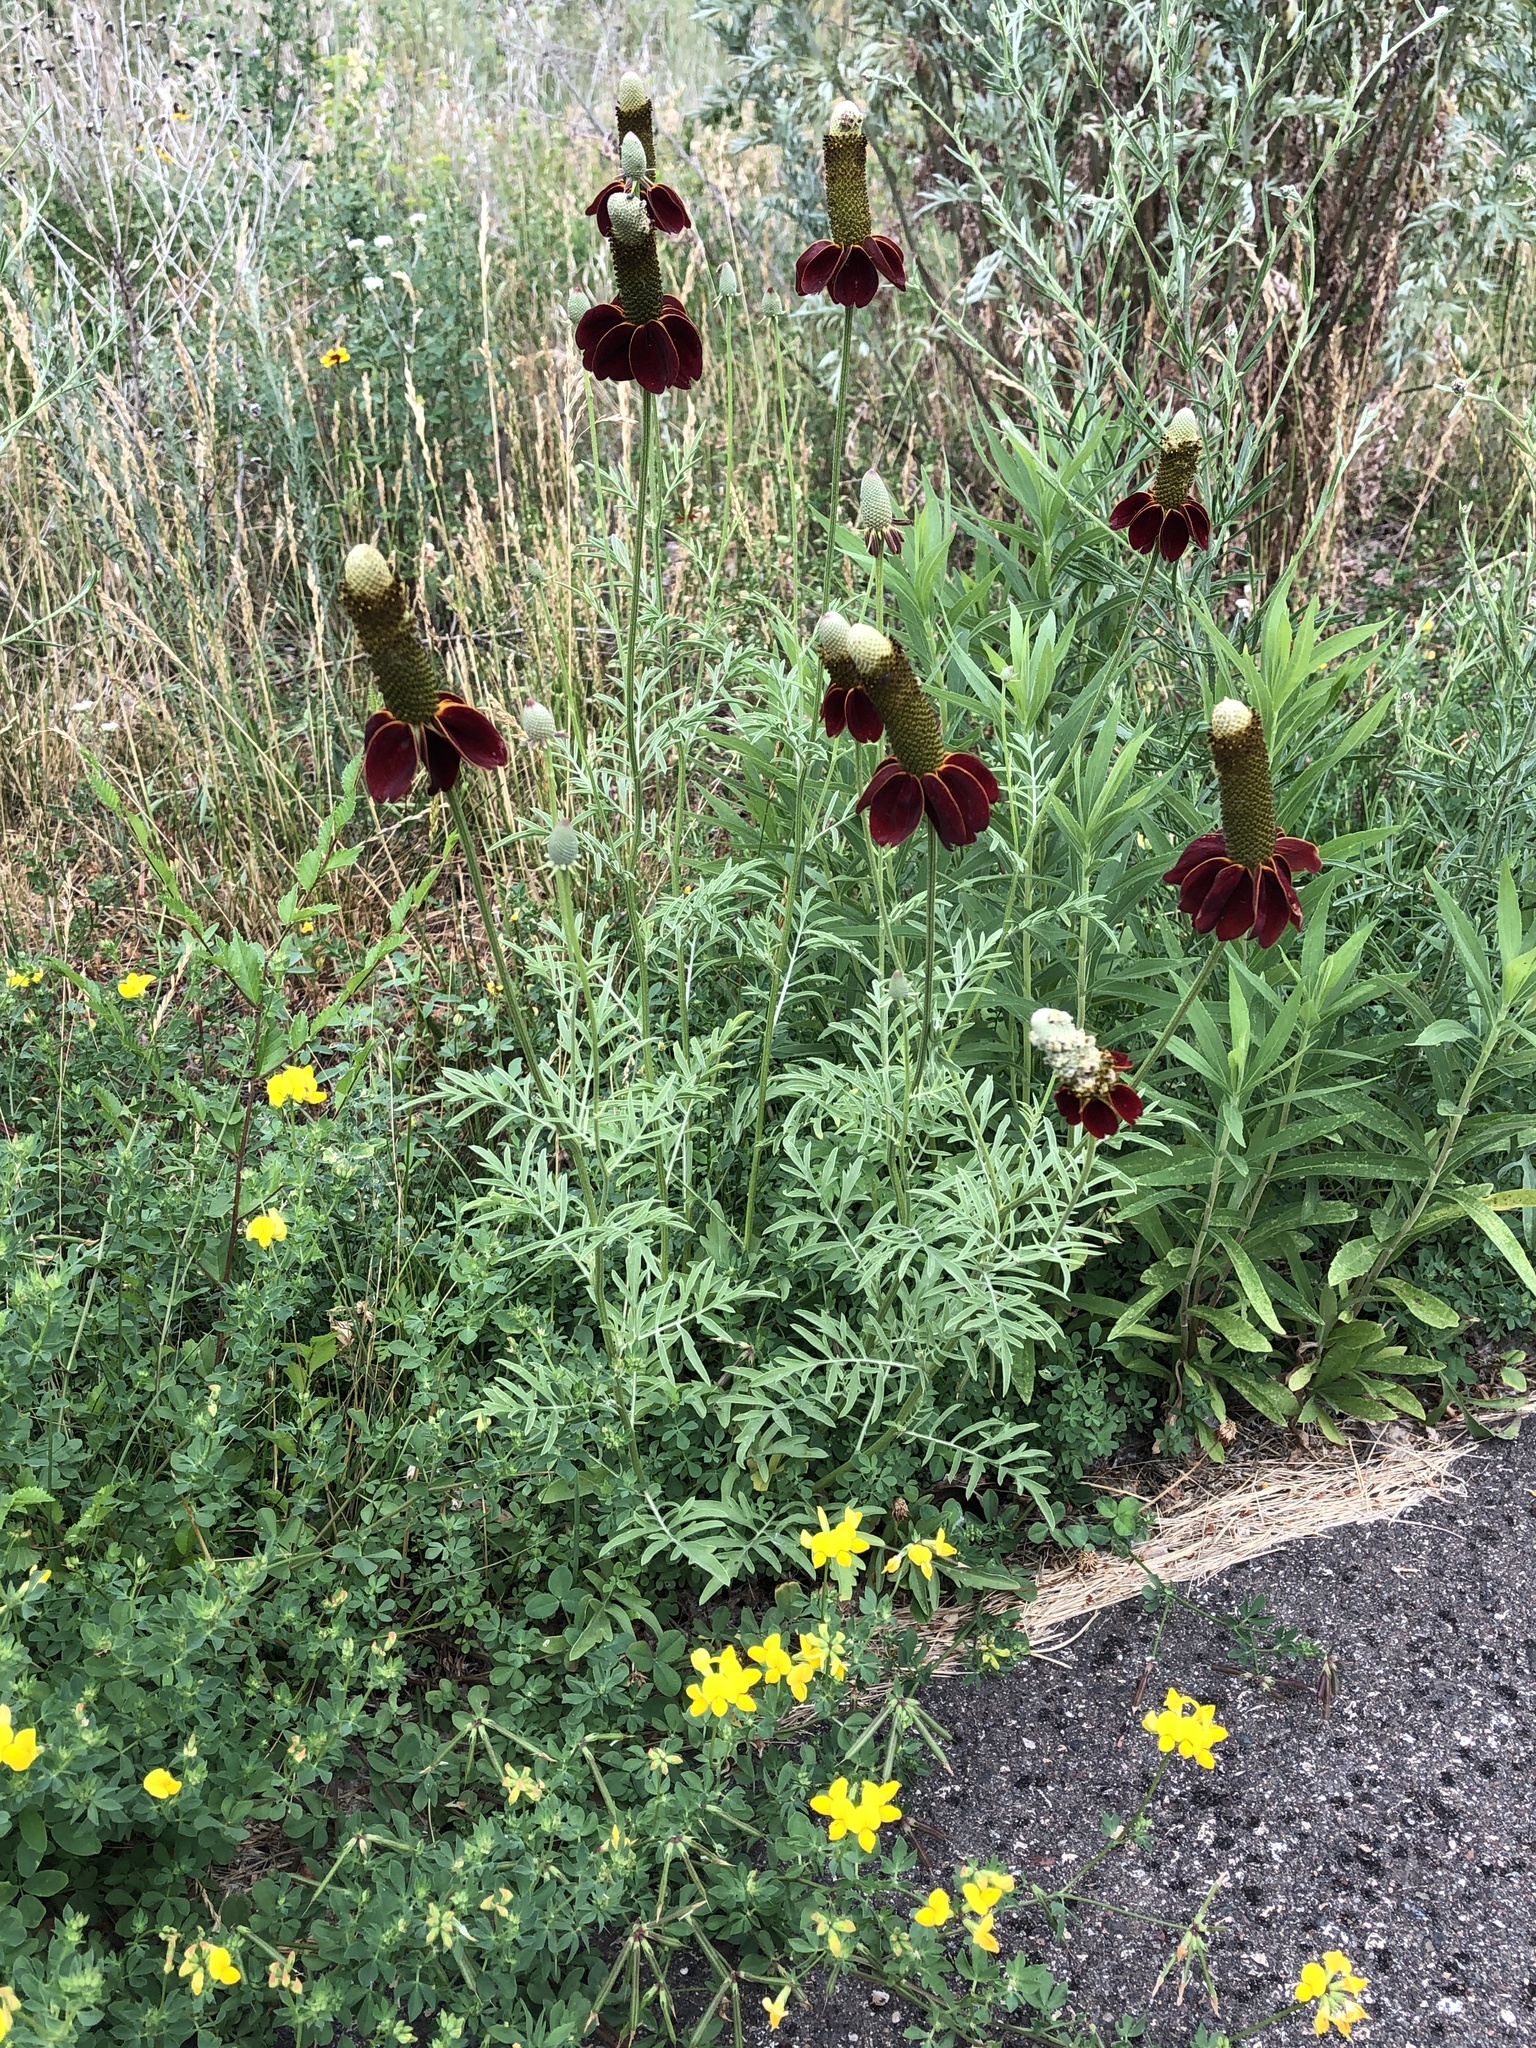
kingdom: Plantae
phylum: Tracheophyta
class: Magnoliopsida
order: Asterales
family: Asteraceae
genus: Ratibida
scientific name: Ratibida columnifera
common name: Prairie coneflower
